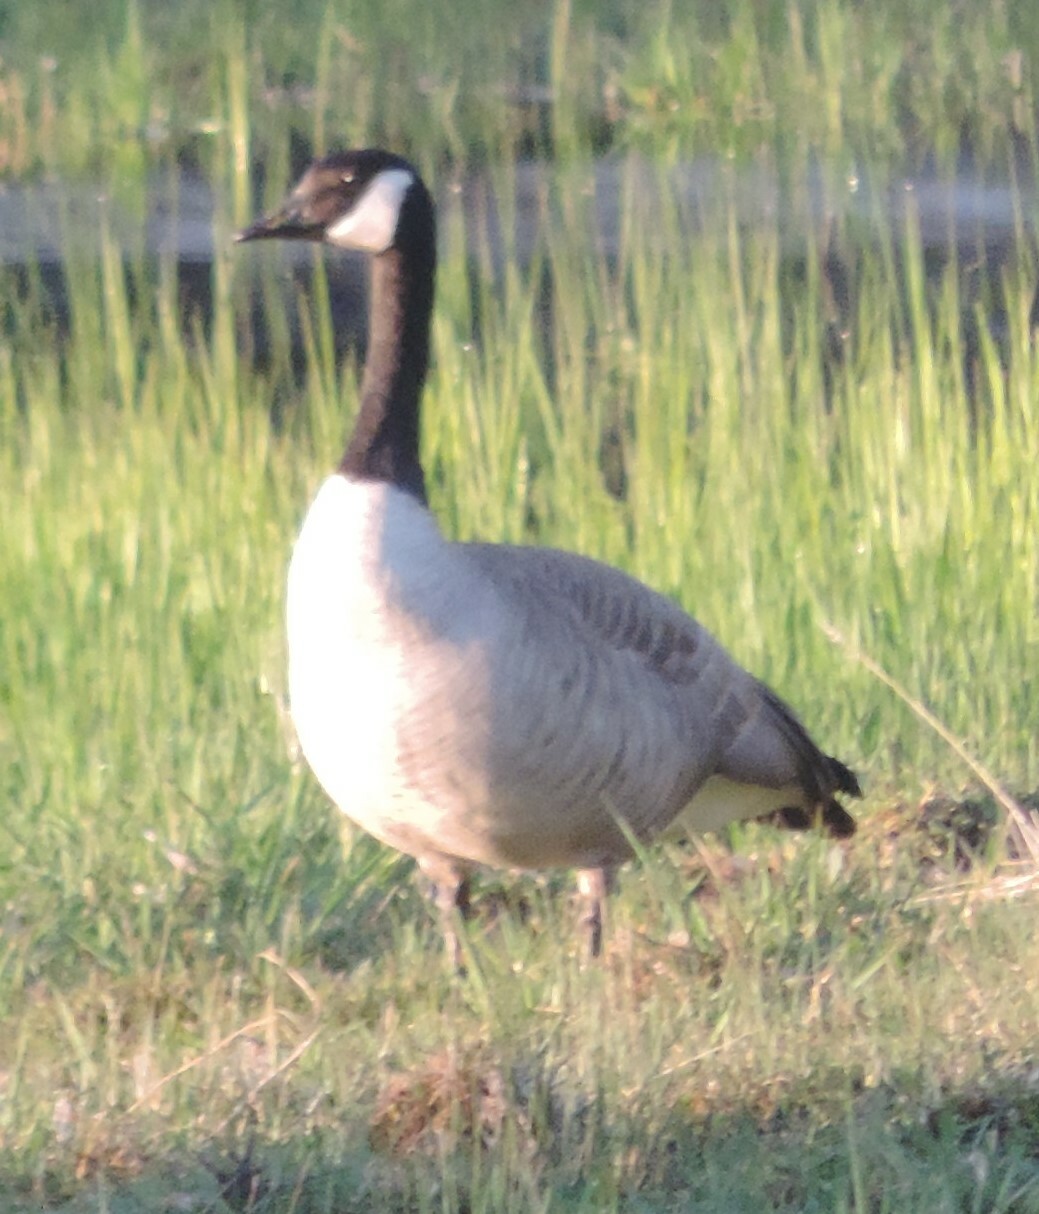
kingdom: Animalia
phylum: Chordata
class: Aves
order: Anseriformes
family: Anatidae
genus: Branta
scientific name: Branta canadensis
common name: Canada goose
